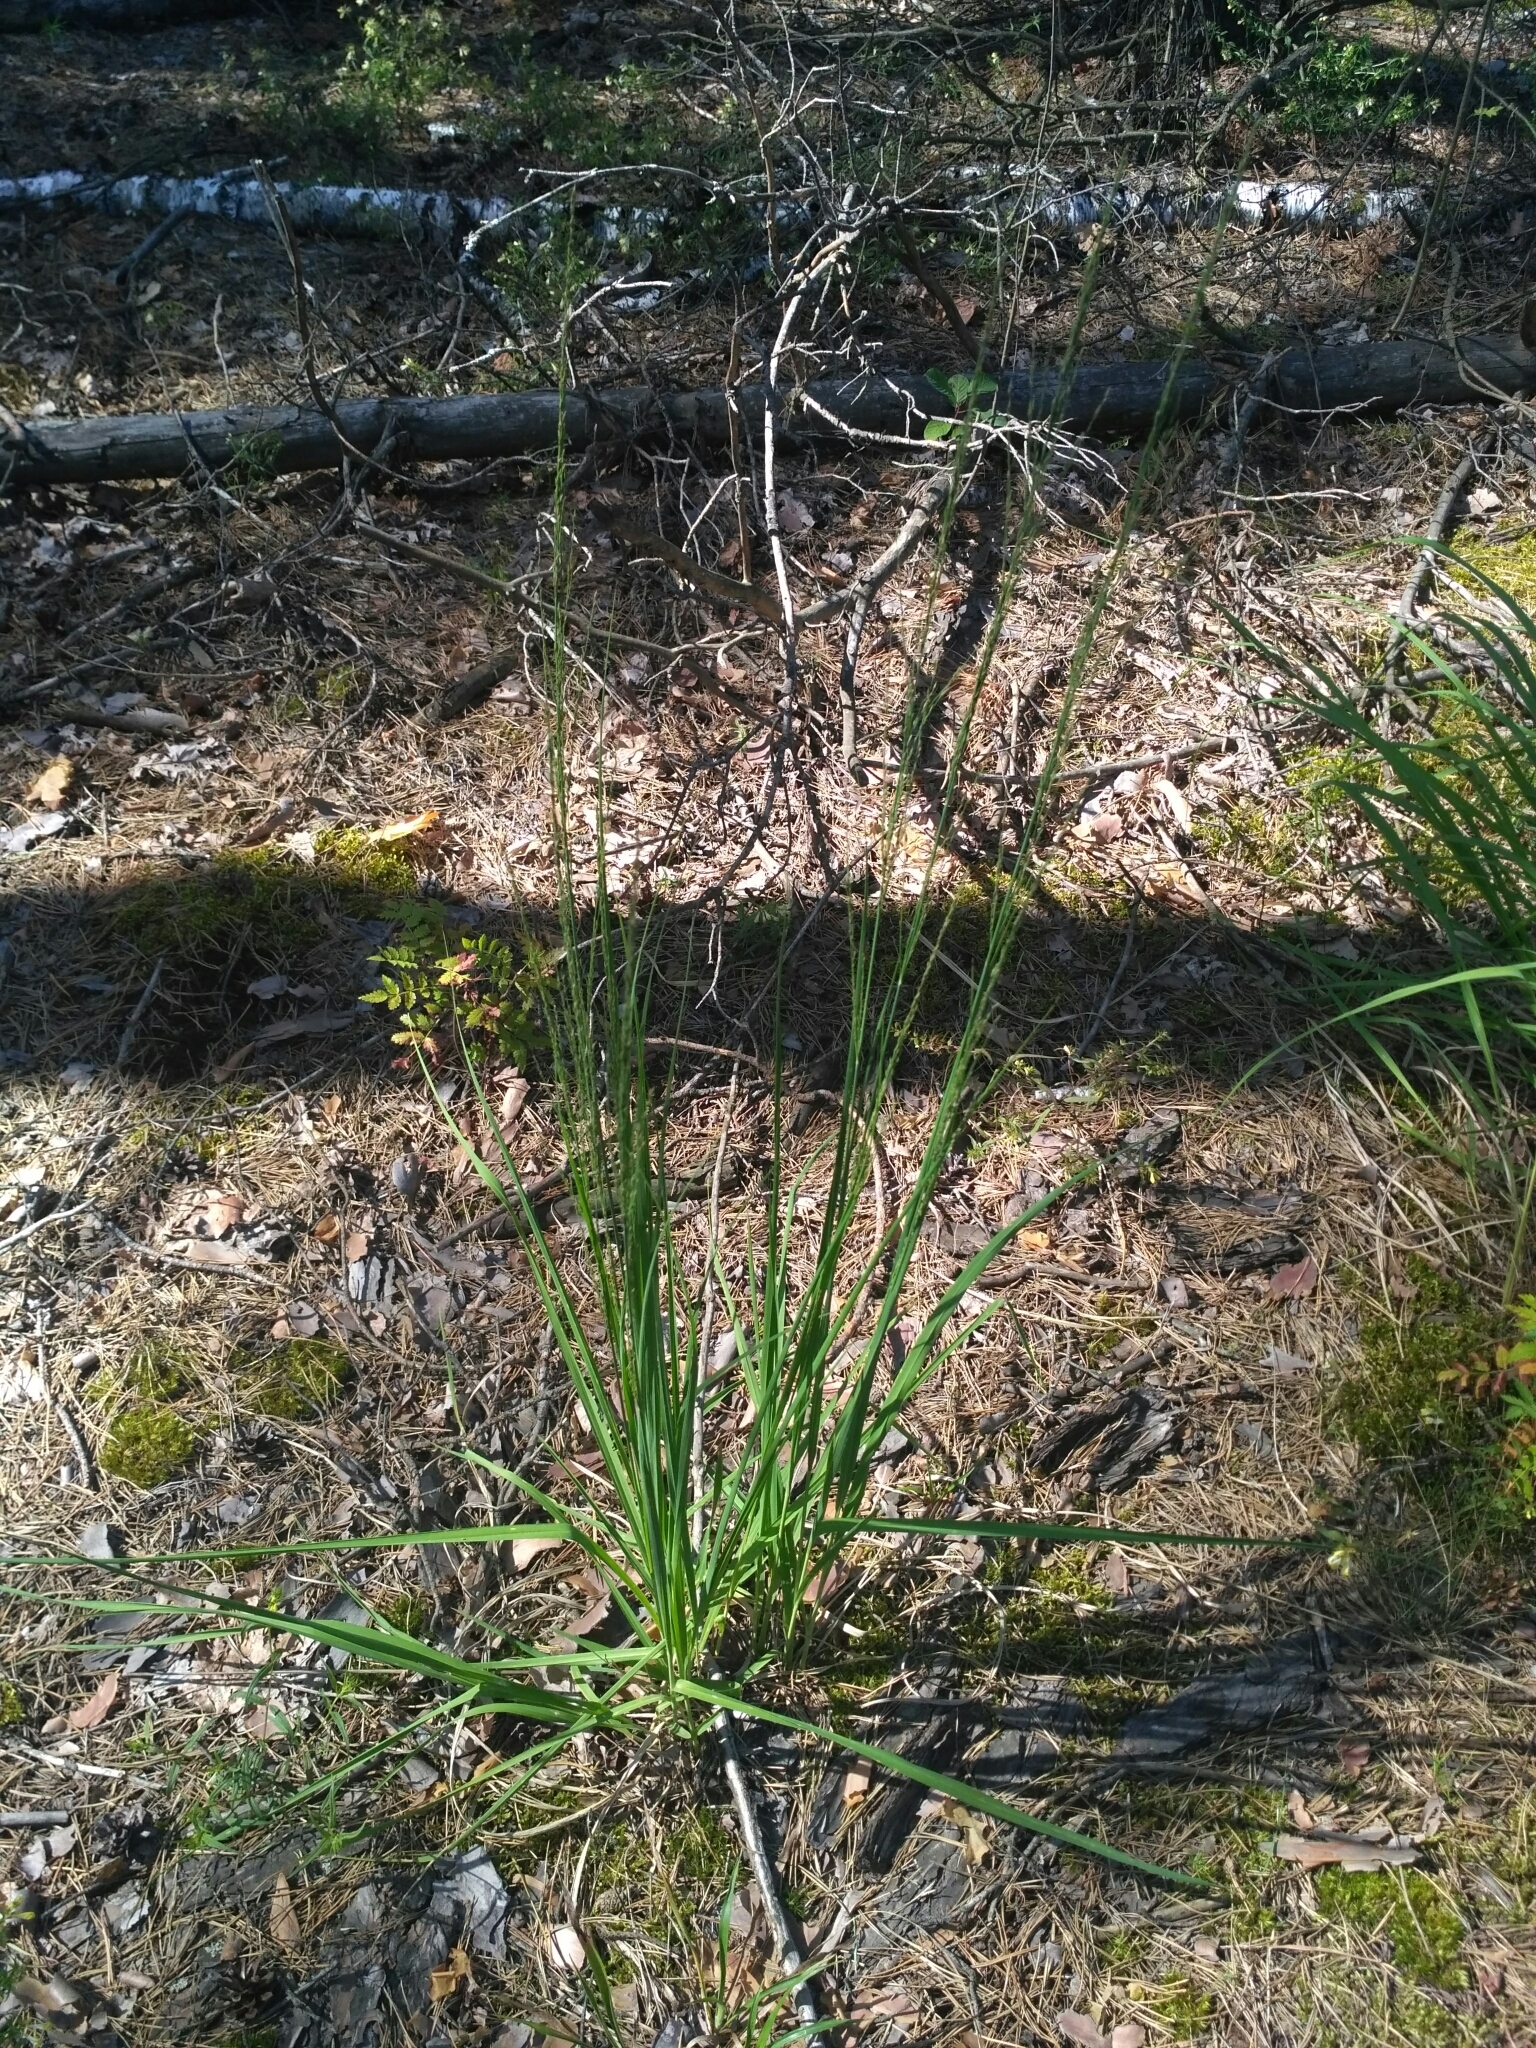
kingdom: Plantae
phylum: Tracheophyta
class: Liliopsida
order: Poales
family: Poaceae
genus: Molinia
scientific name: Molinia caerulea
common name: Purple moor-grass
